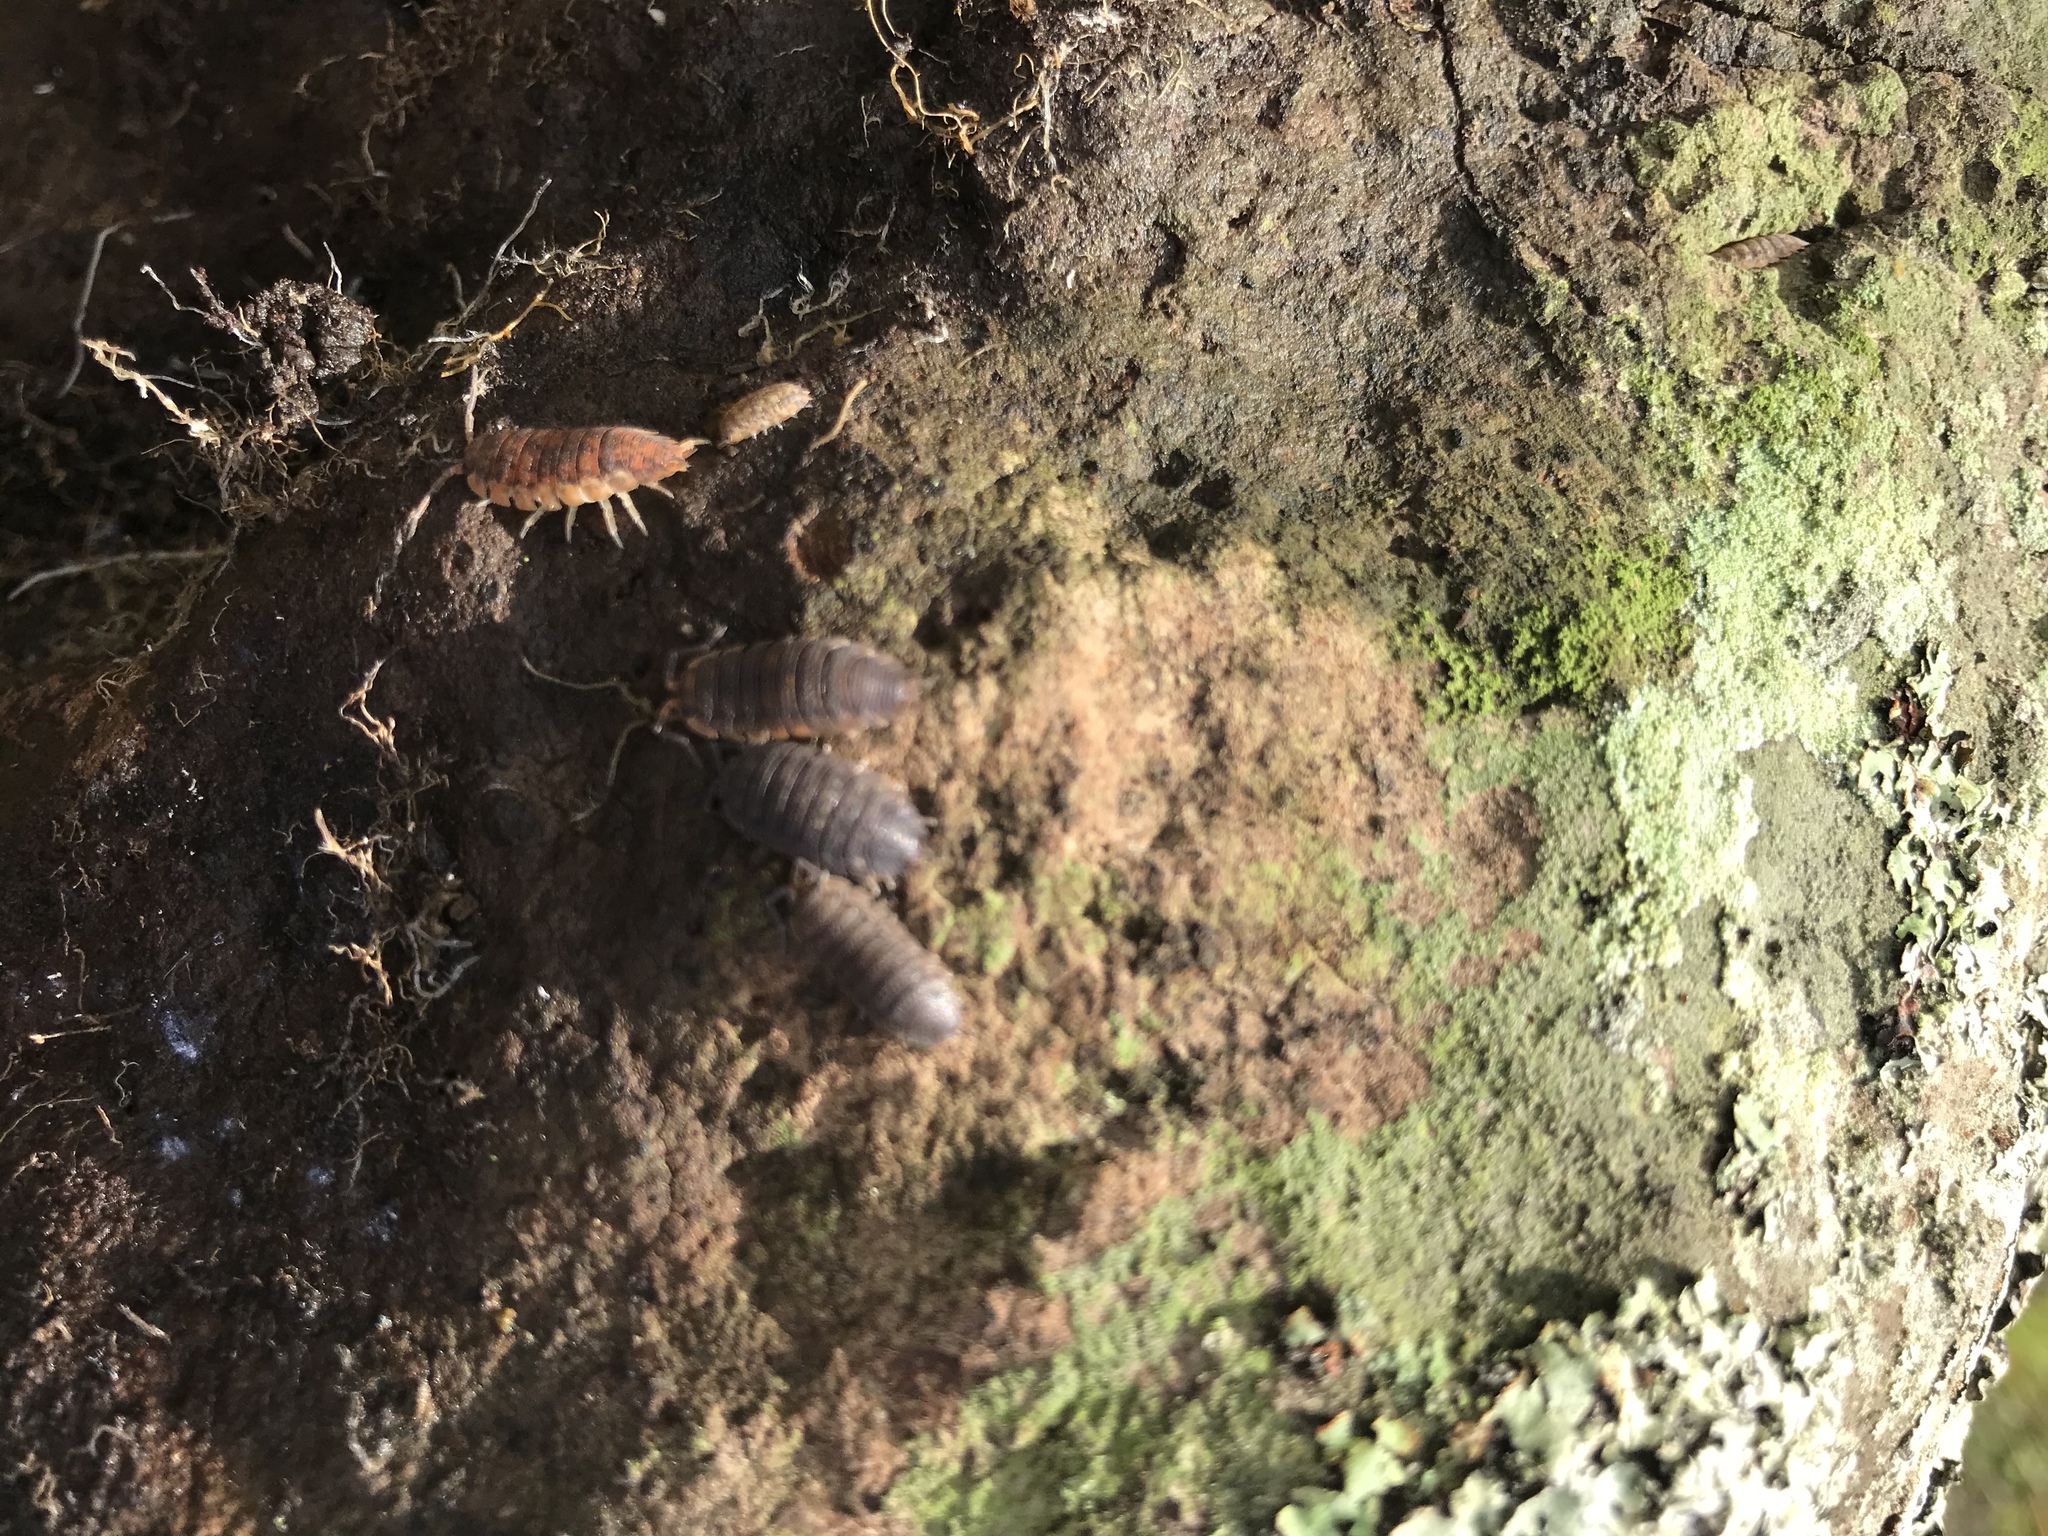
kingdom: Animalia
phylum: Arthropoda
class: Malacostraca
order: Isopoda
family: Porcellionidae
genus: Porcellio
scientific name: Porcellio scaber
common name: Common rough woodlouse
